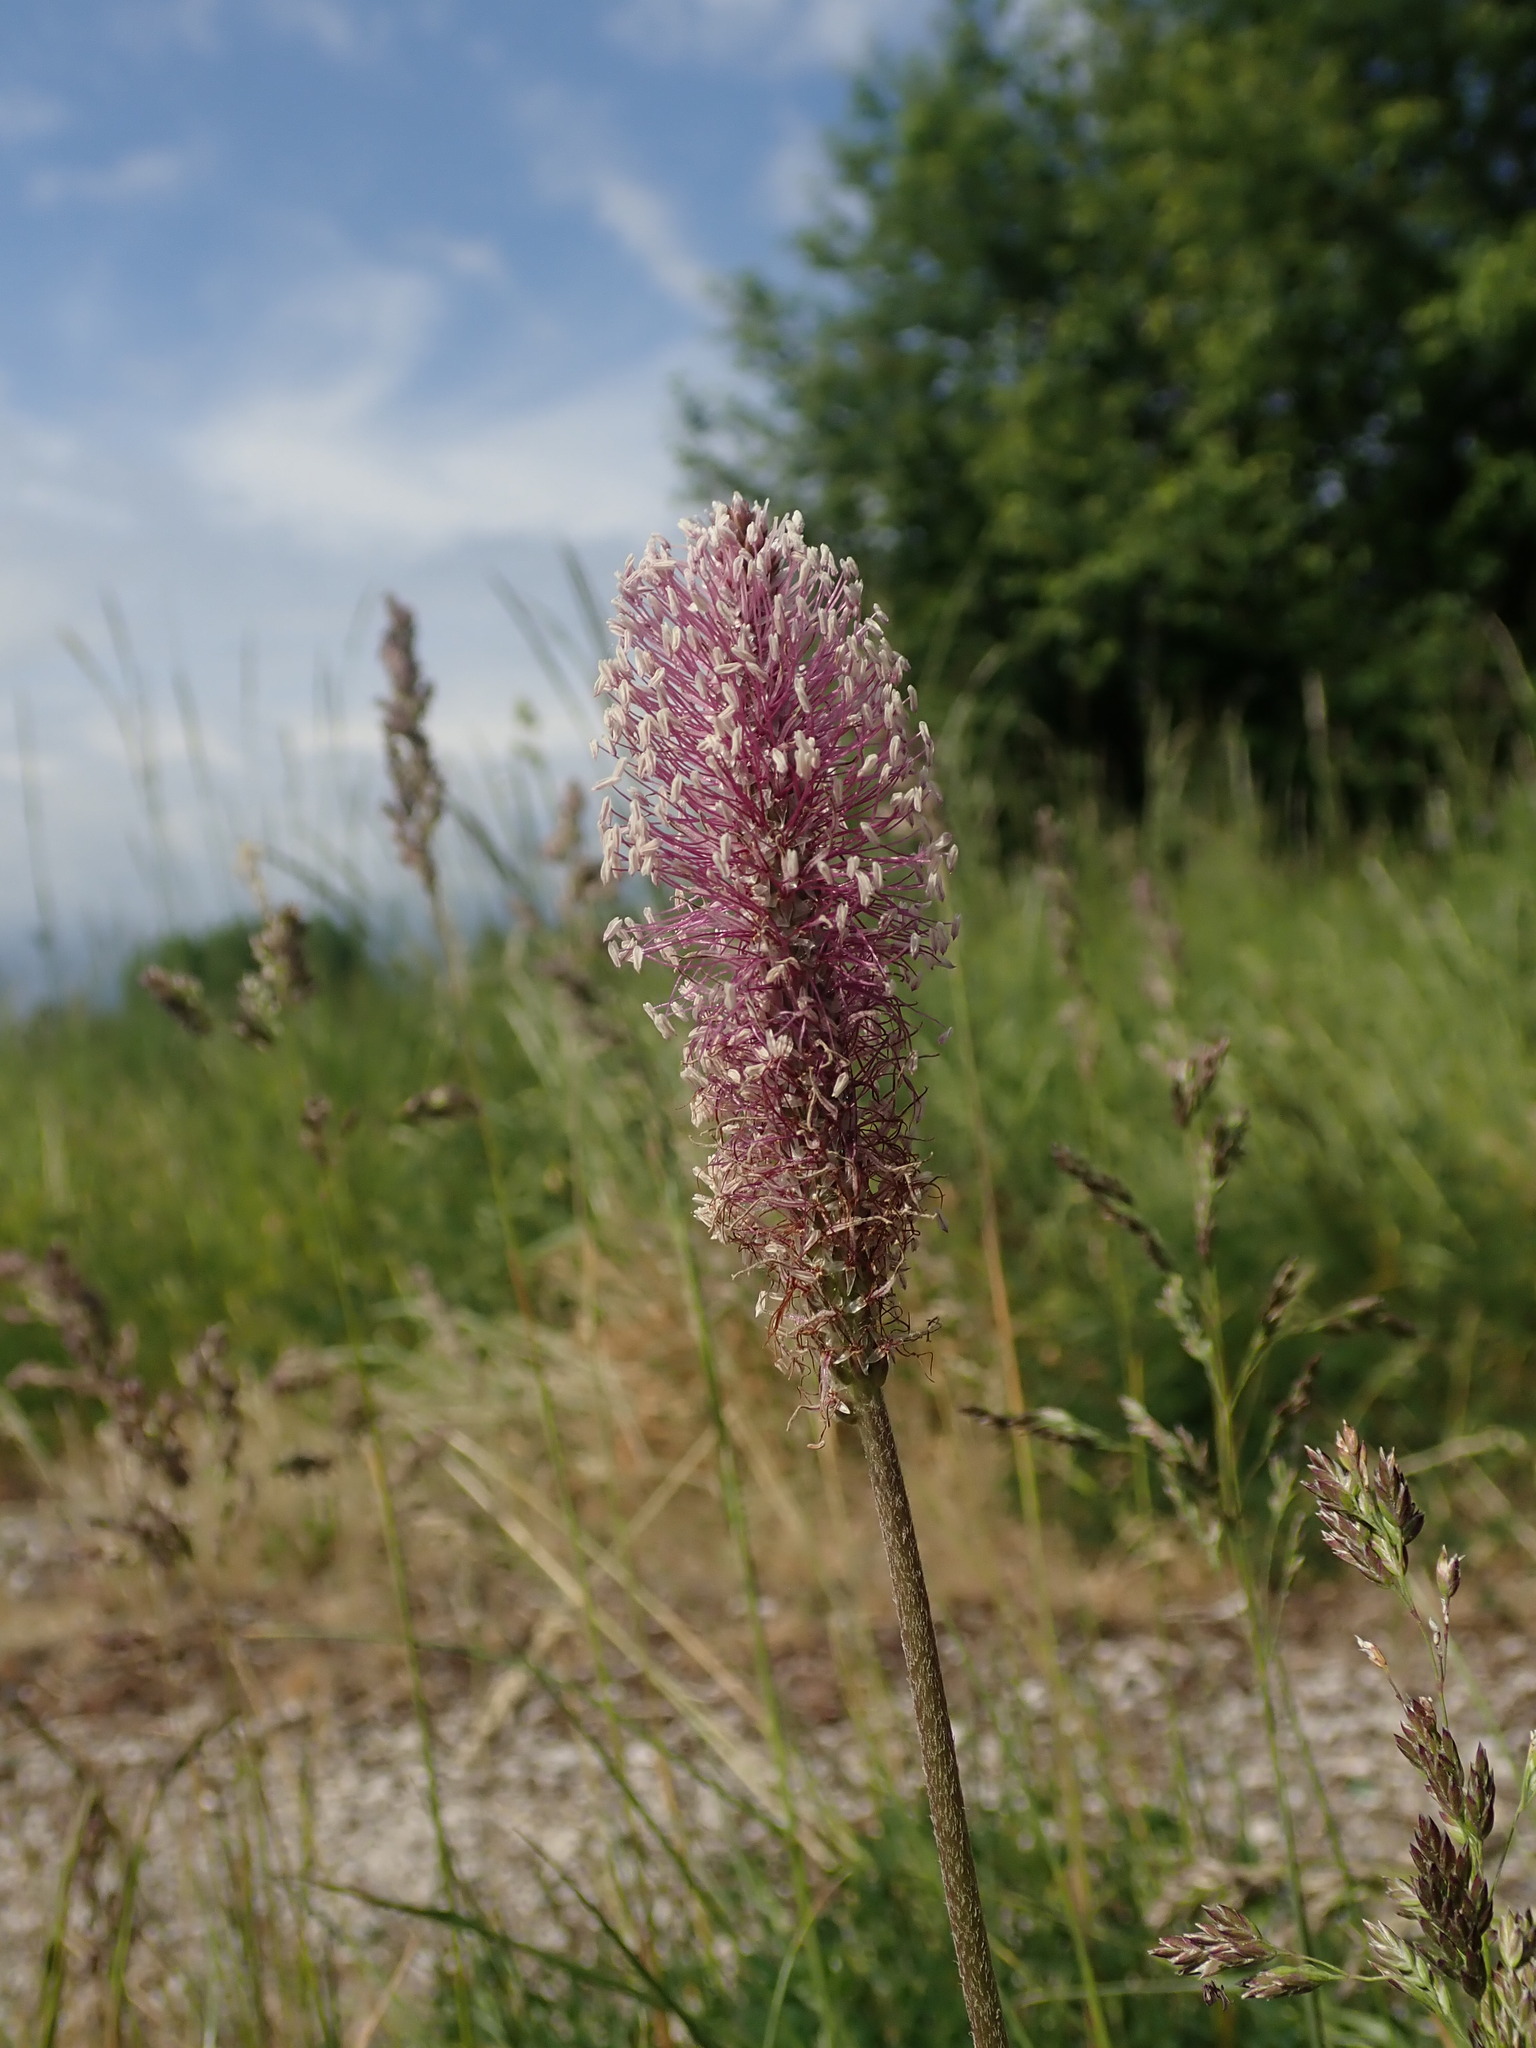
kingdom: Plantae
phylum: Tracheophyta
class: Magnoliopsida
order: Lamiales
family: Plantaginaceae
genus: Plantago
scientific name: Plantago media
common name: Hoary plantain
